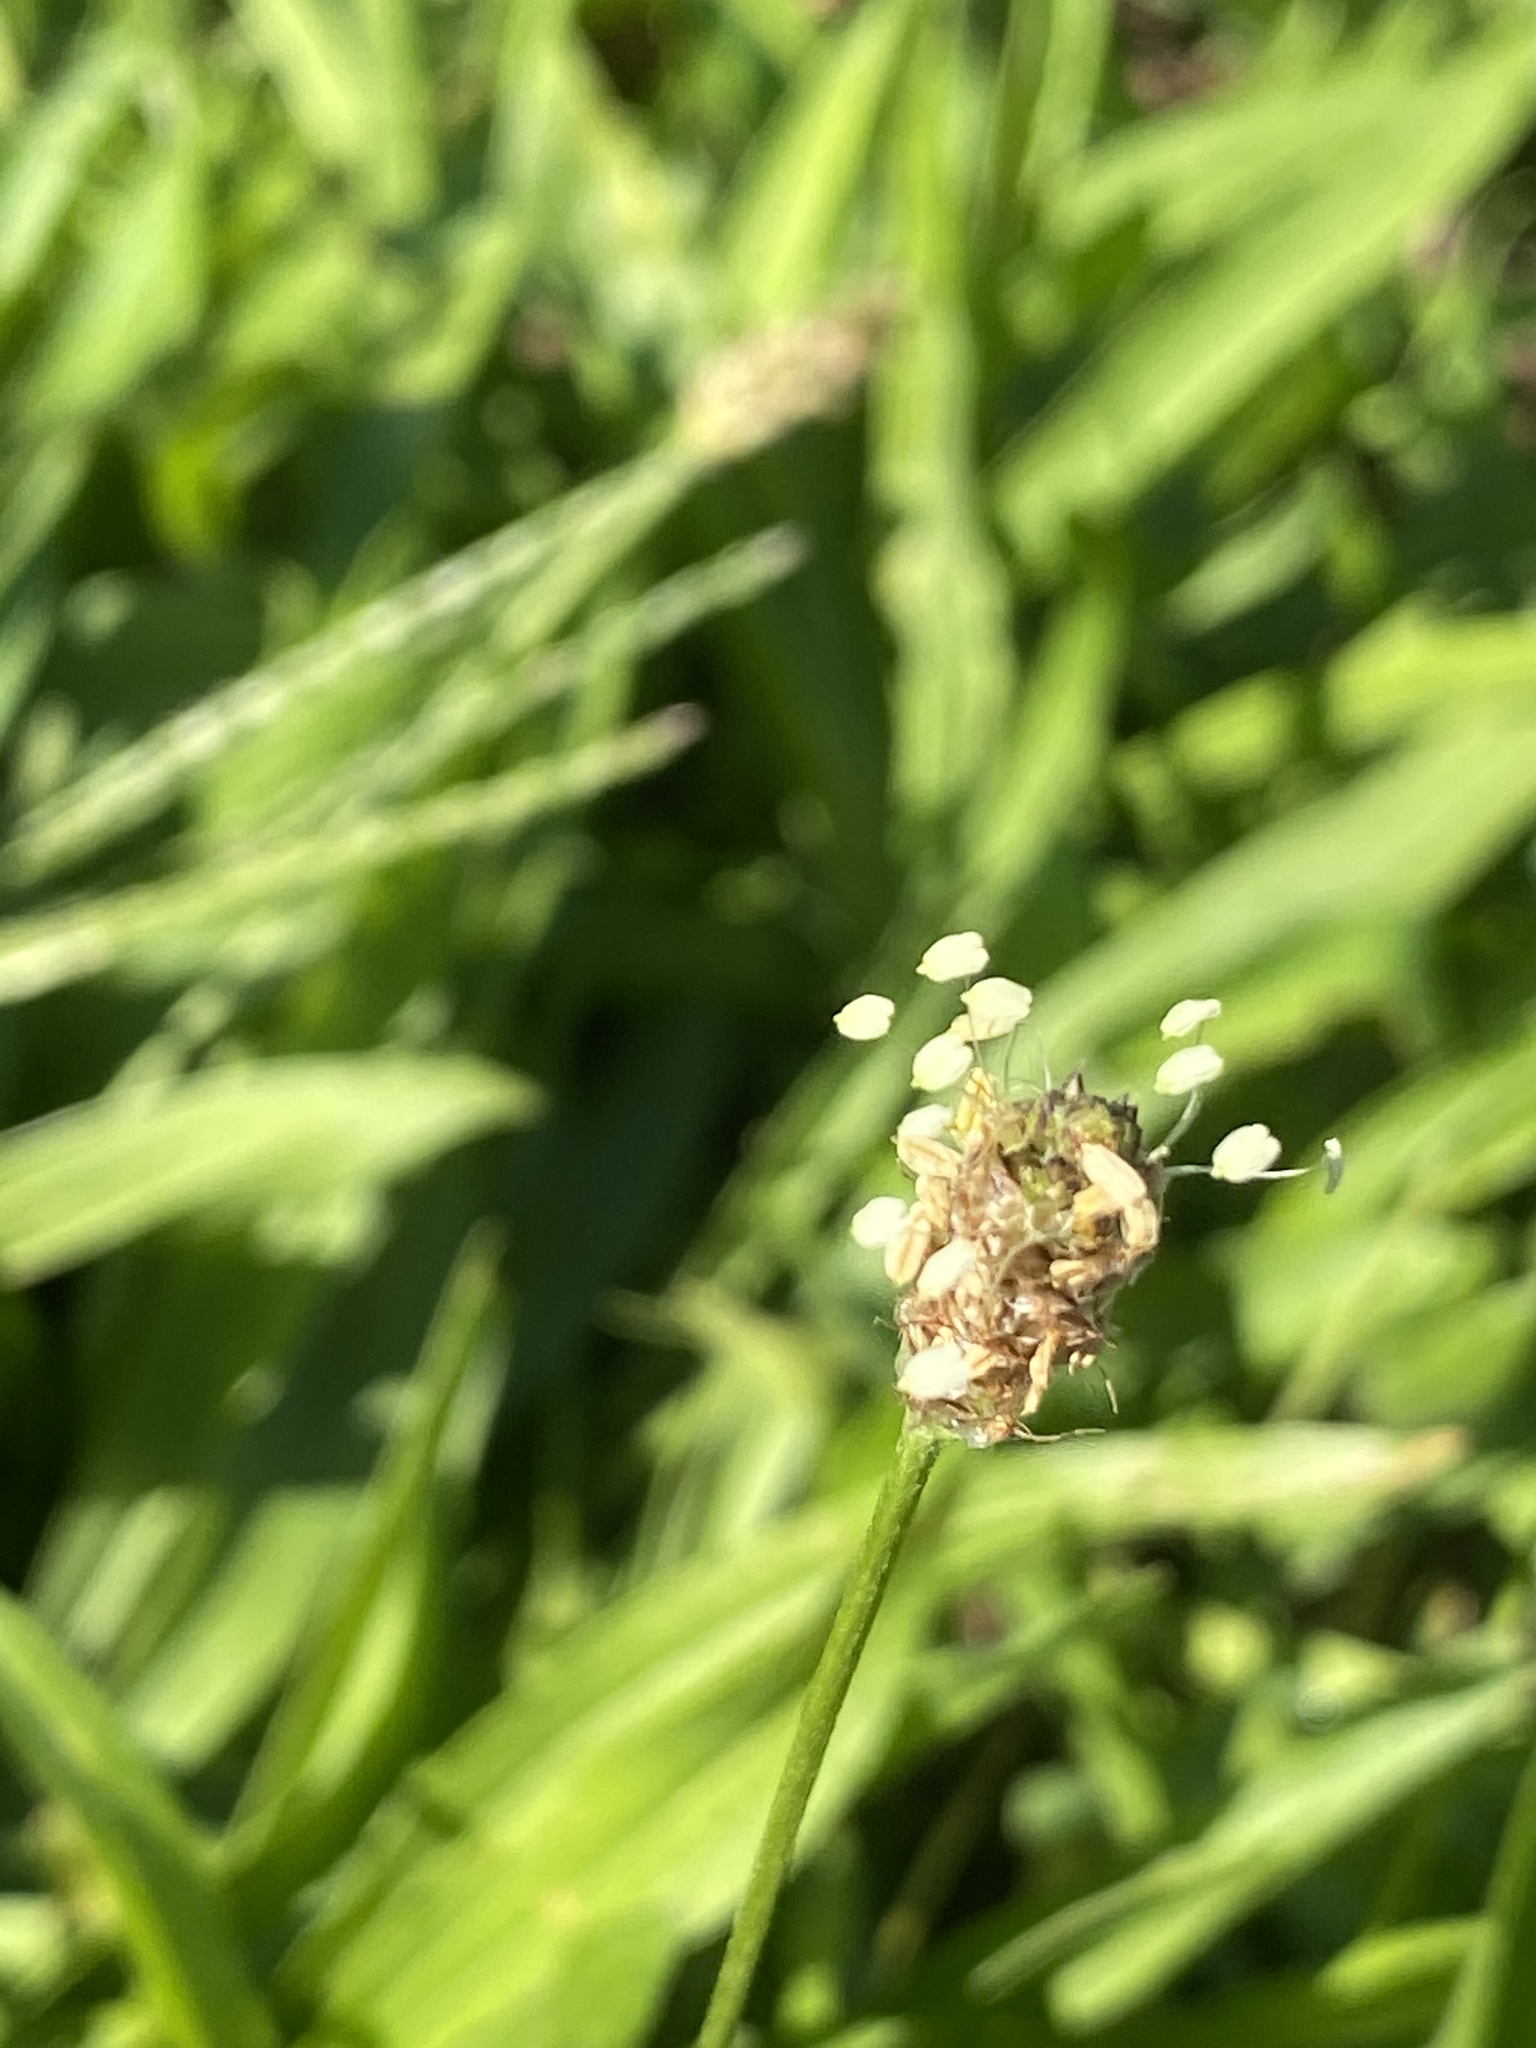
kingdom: Plantae
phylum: Tracheophyta
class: Magnoliopsida
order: Lamiales
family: Plantaginaceae
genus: Plantago
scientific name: Plantago lanceolata
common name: Ribwort plantain
